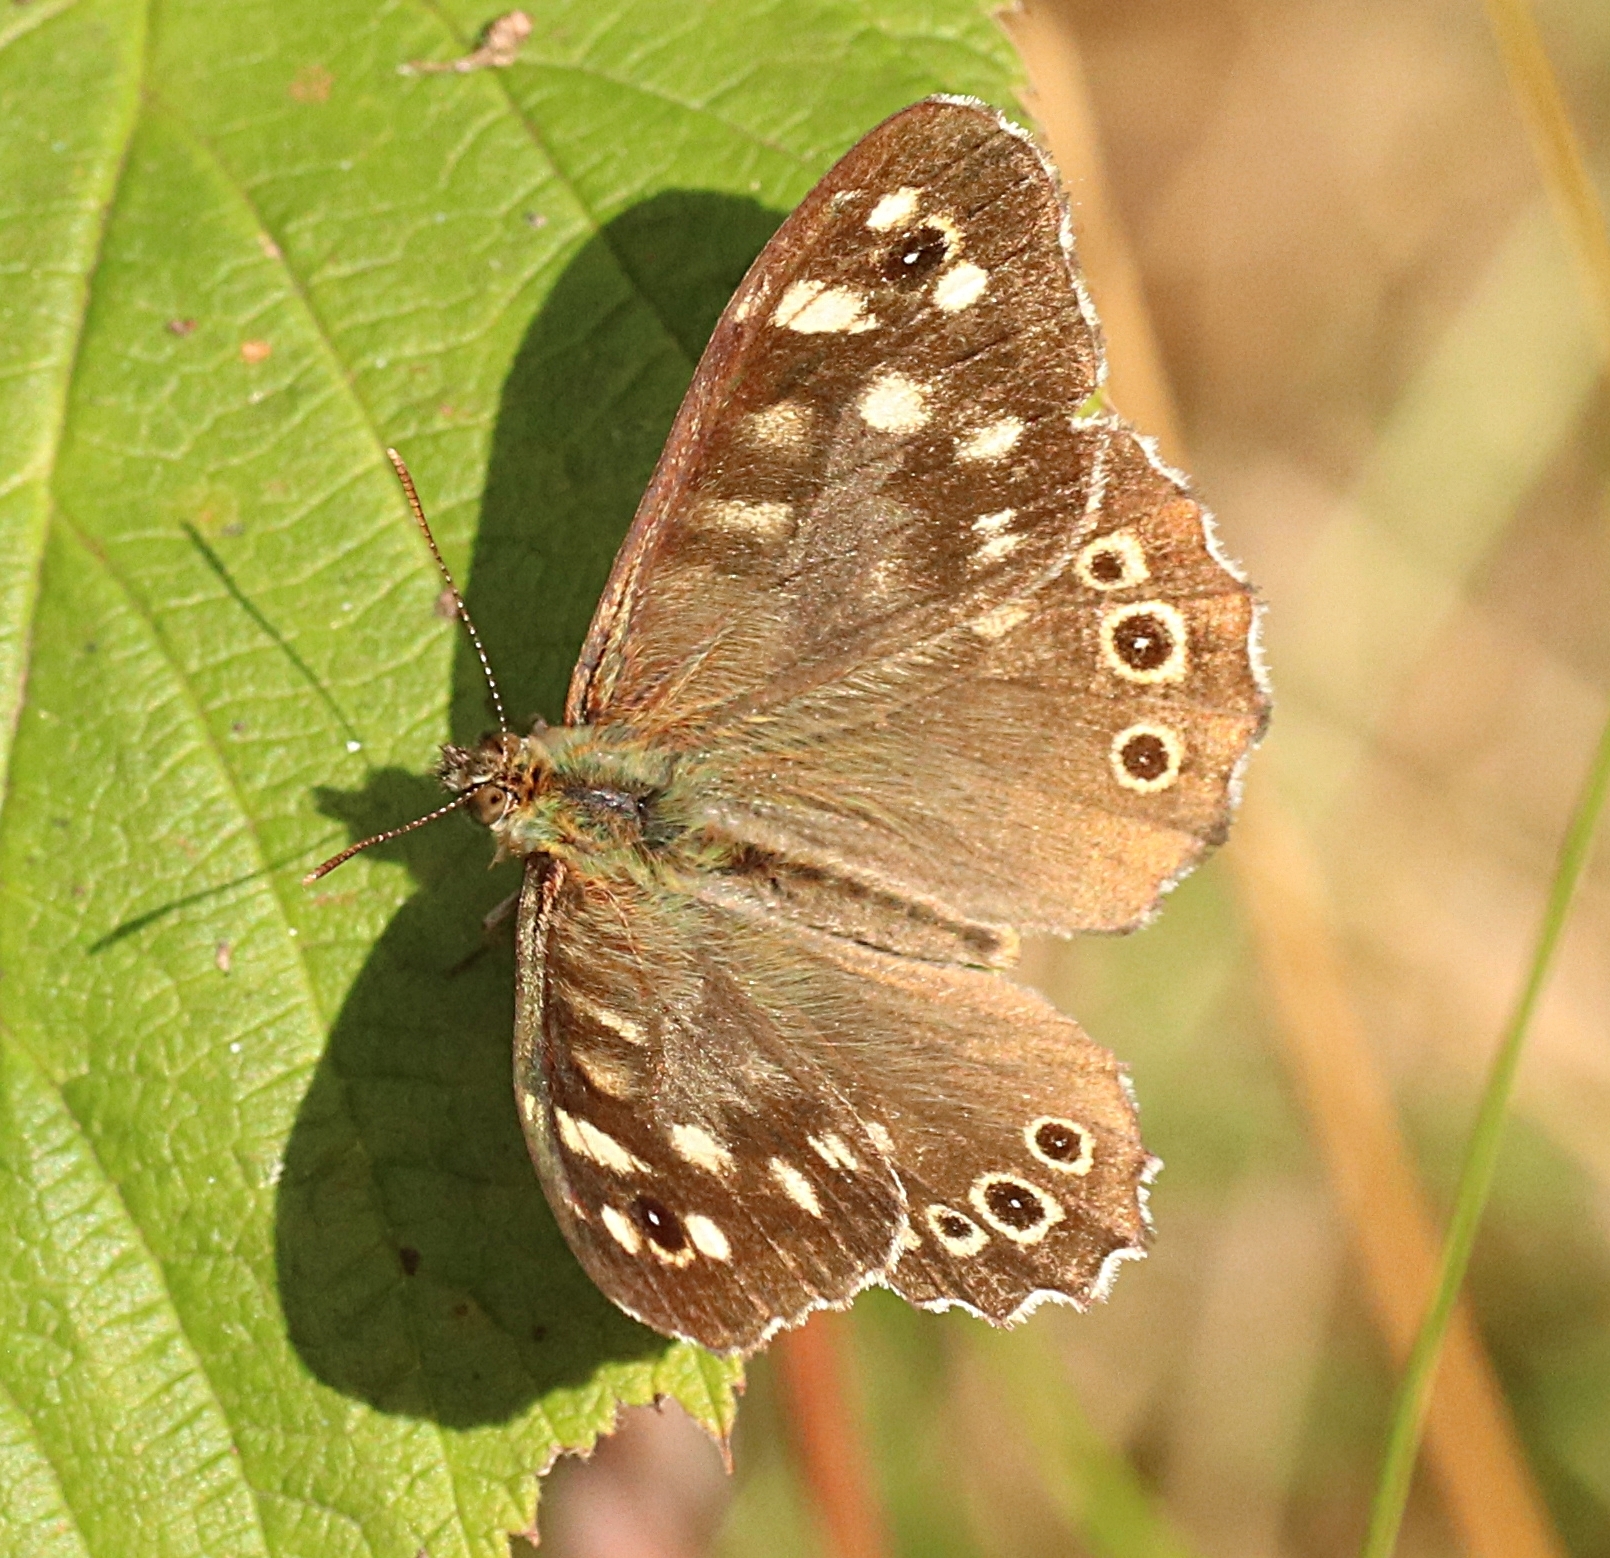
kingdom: Animalia
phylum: Arthropoda
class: Insecta
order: Lepidoptera
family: Nymphalidae
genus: Pararge
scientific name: Pararge aegeria
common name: Speckled wood
